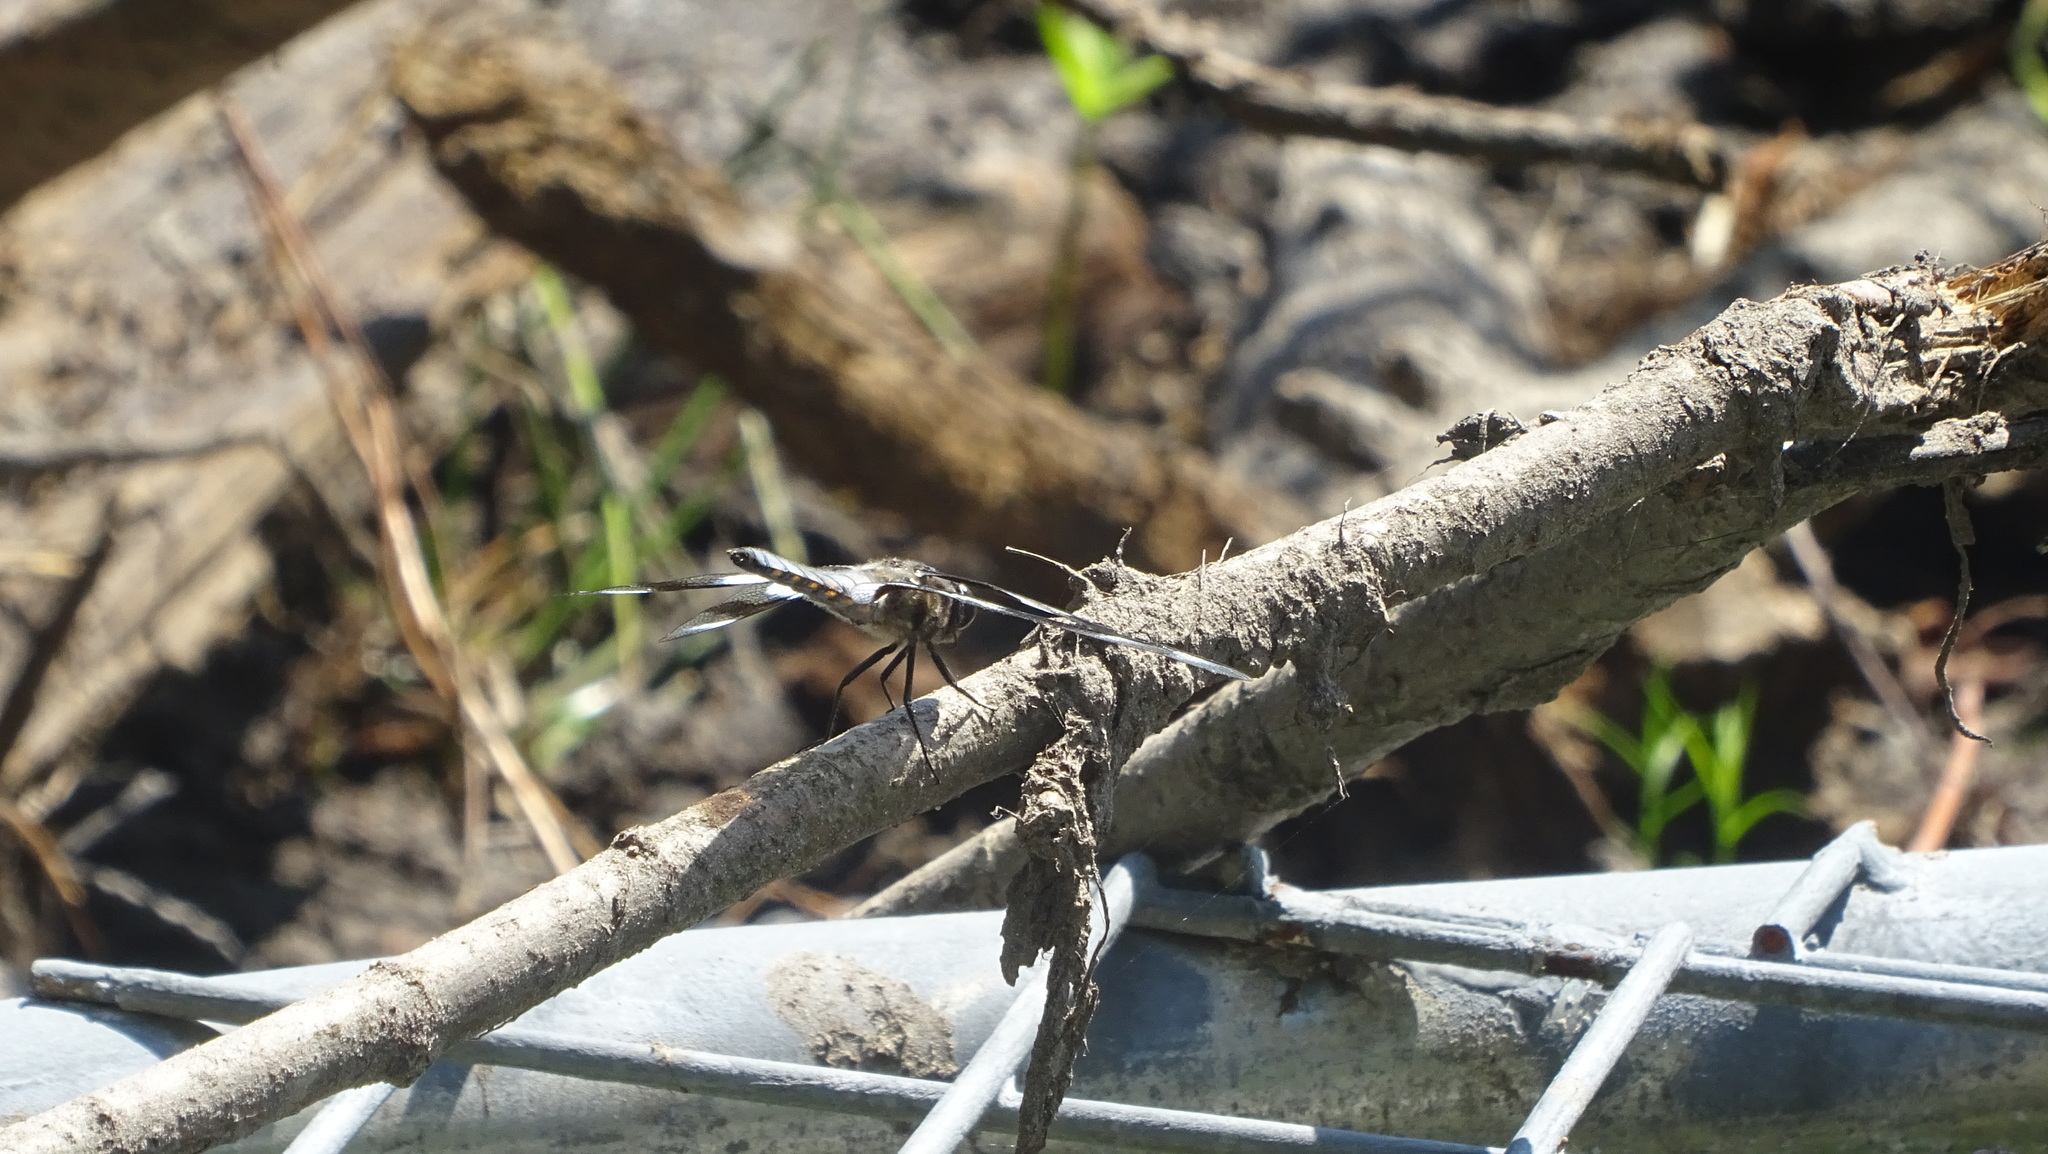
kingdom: Animalia
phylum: Arthropoda
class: Insecta
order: Odonata
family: Libellulidae
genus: Libellula
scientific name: Libellula forensis
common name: Eight-spotted skimmer
